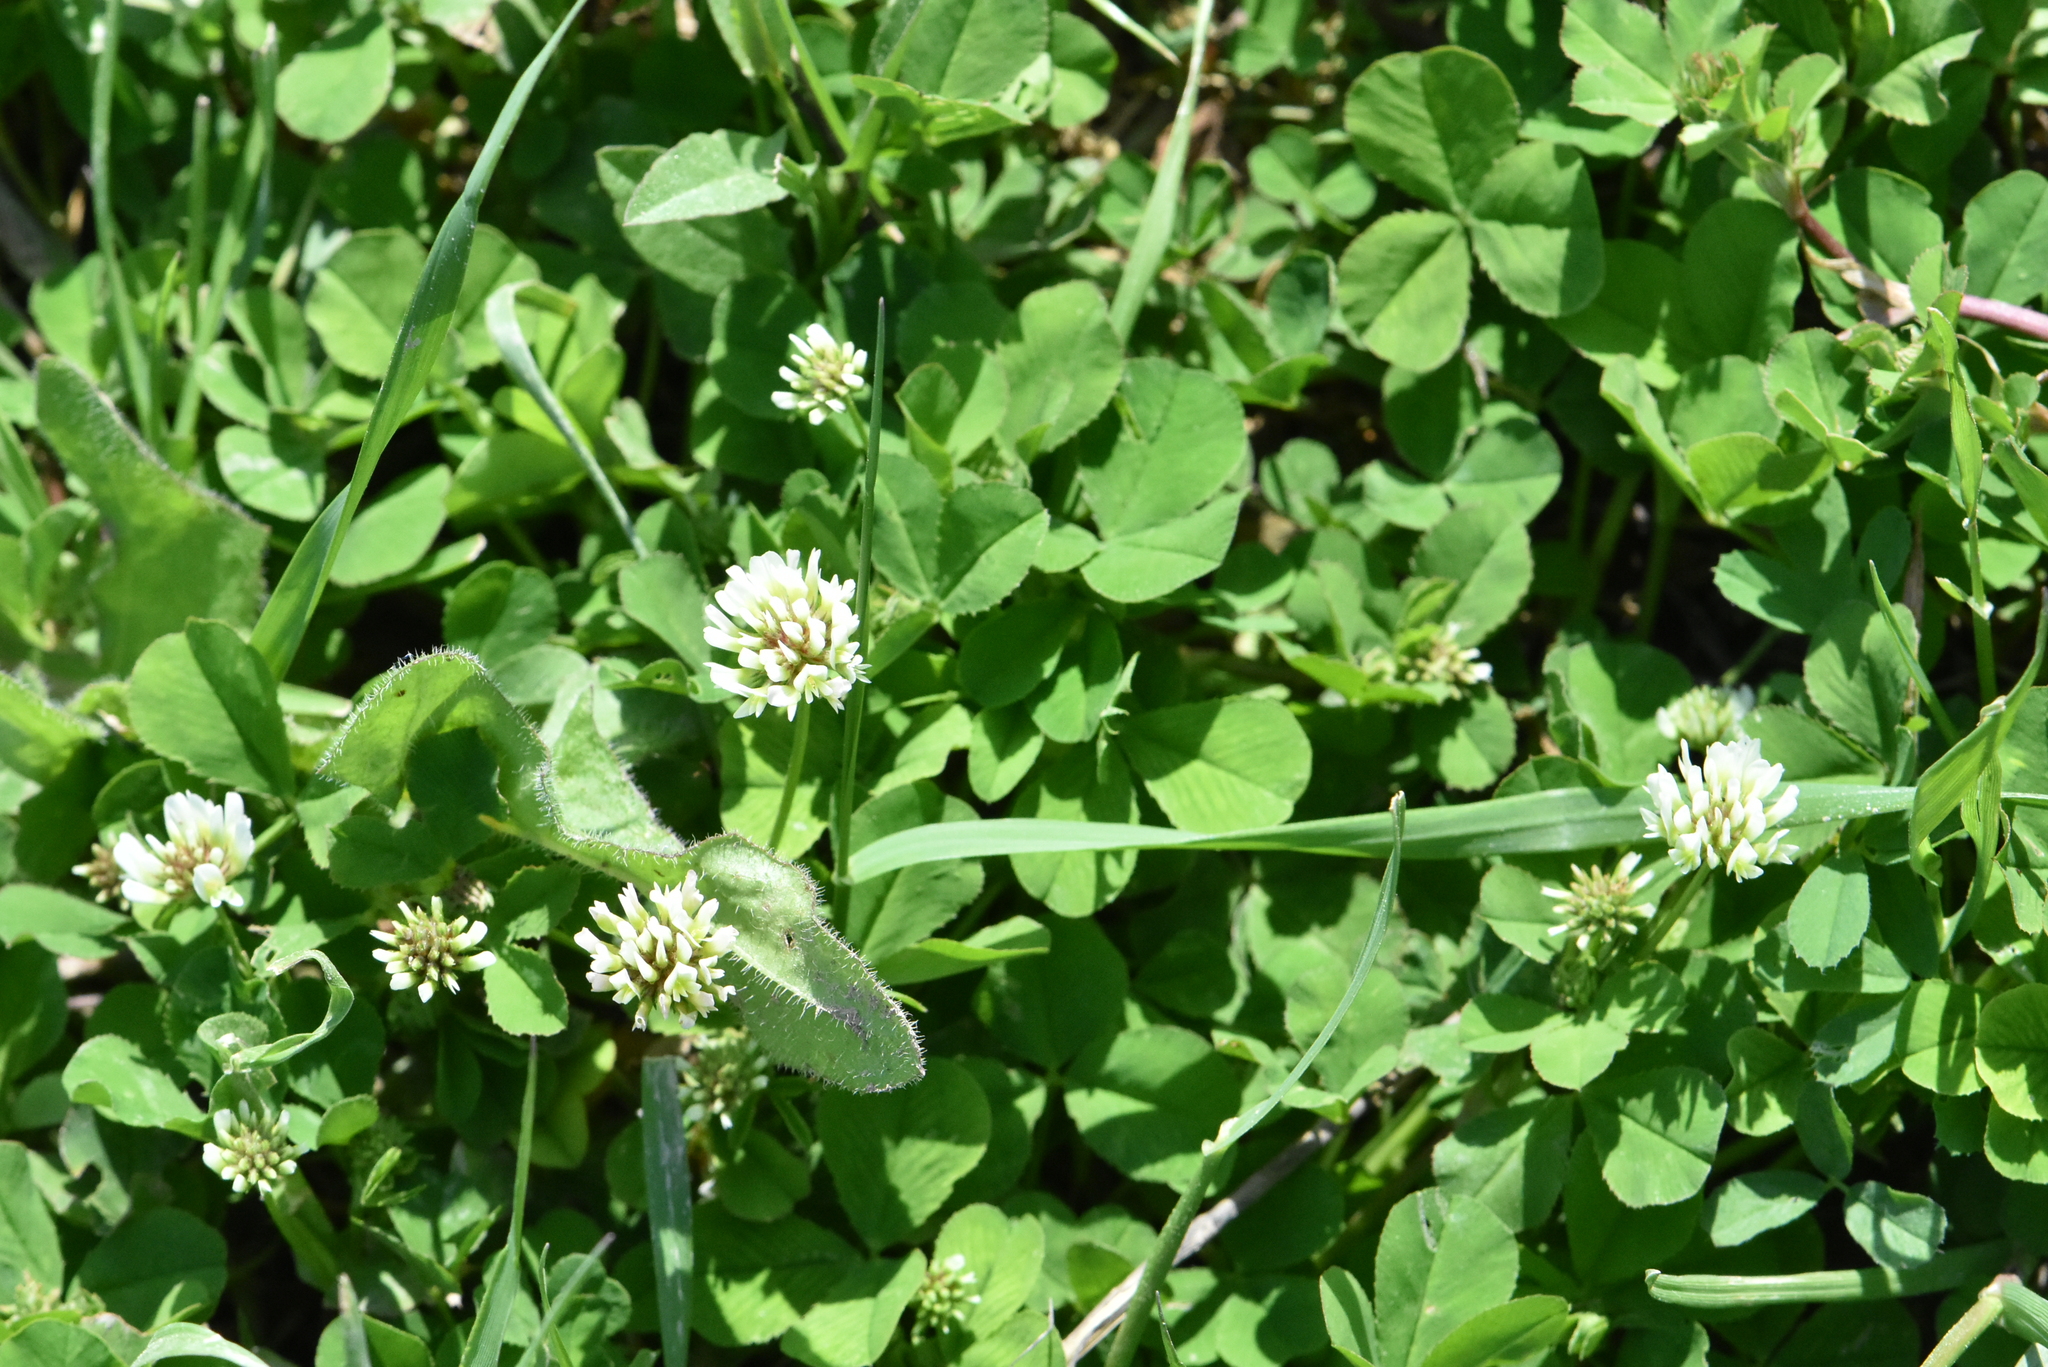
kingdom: Plantae
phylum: Tracheophyta
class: Magnoliopsida
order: Fabales
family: Fabaceae
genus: Trifolium
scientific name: Trifolium repens
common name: White clover
